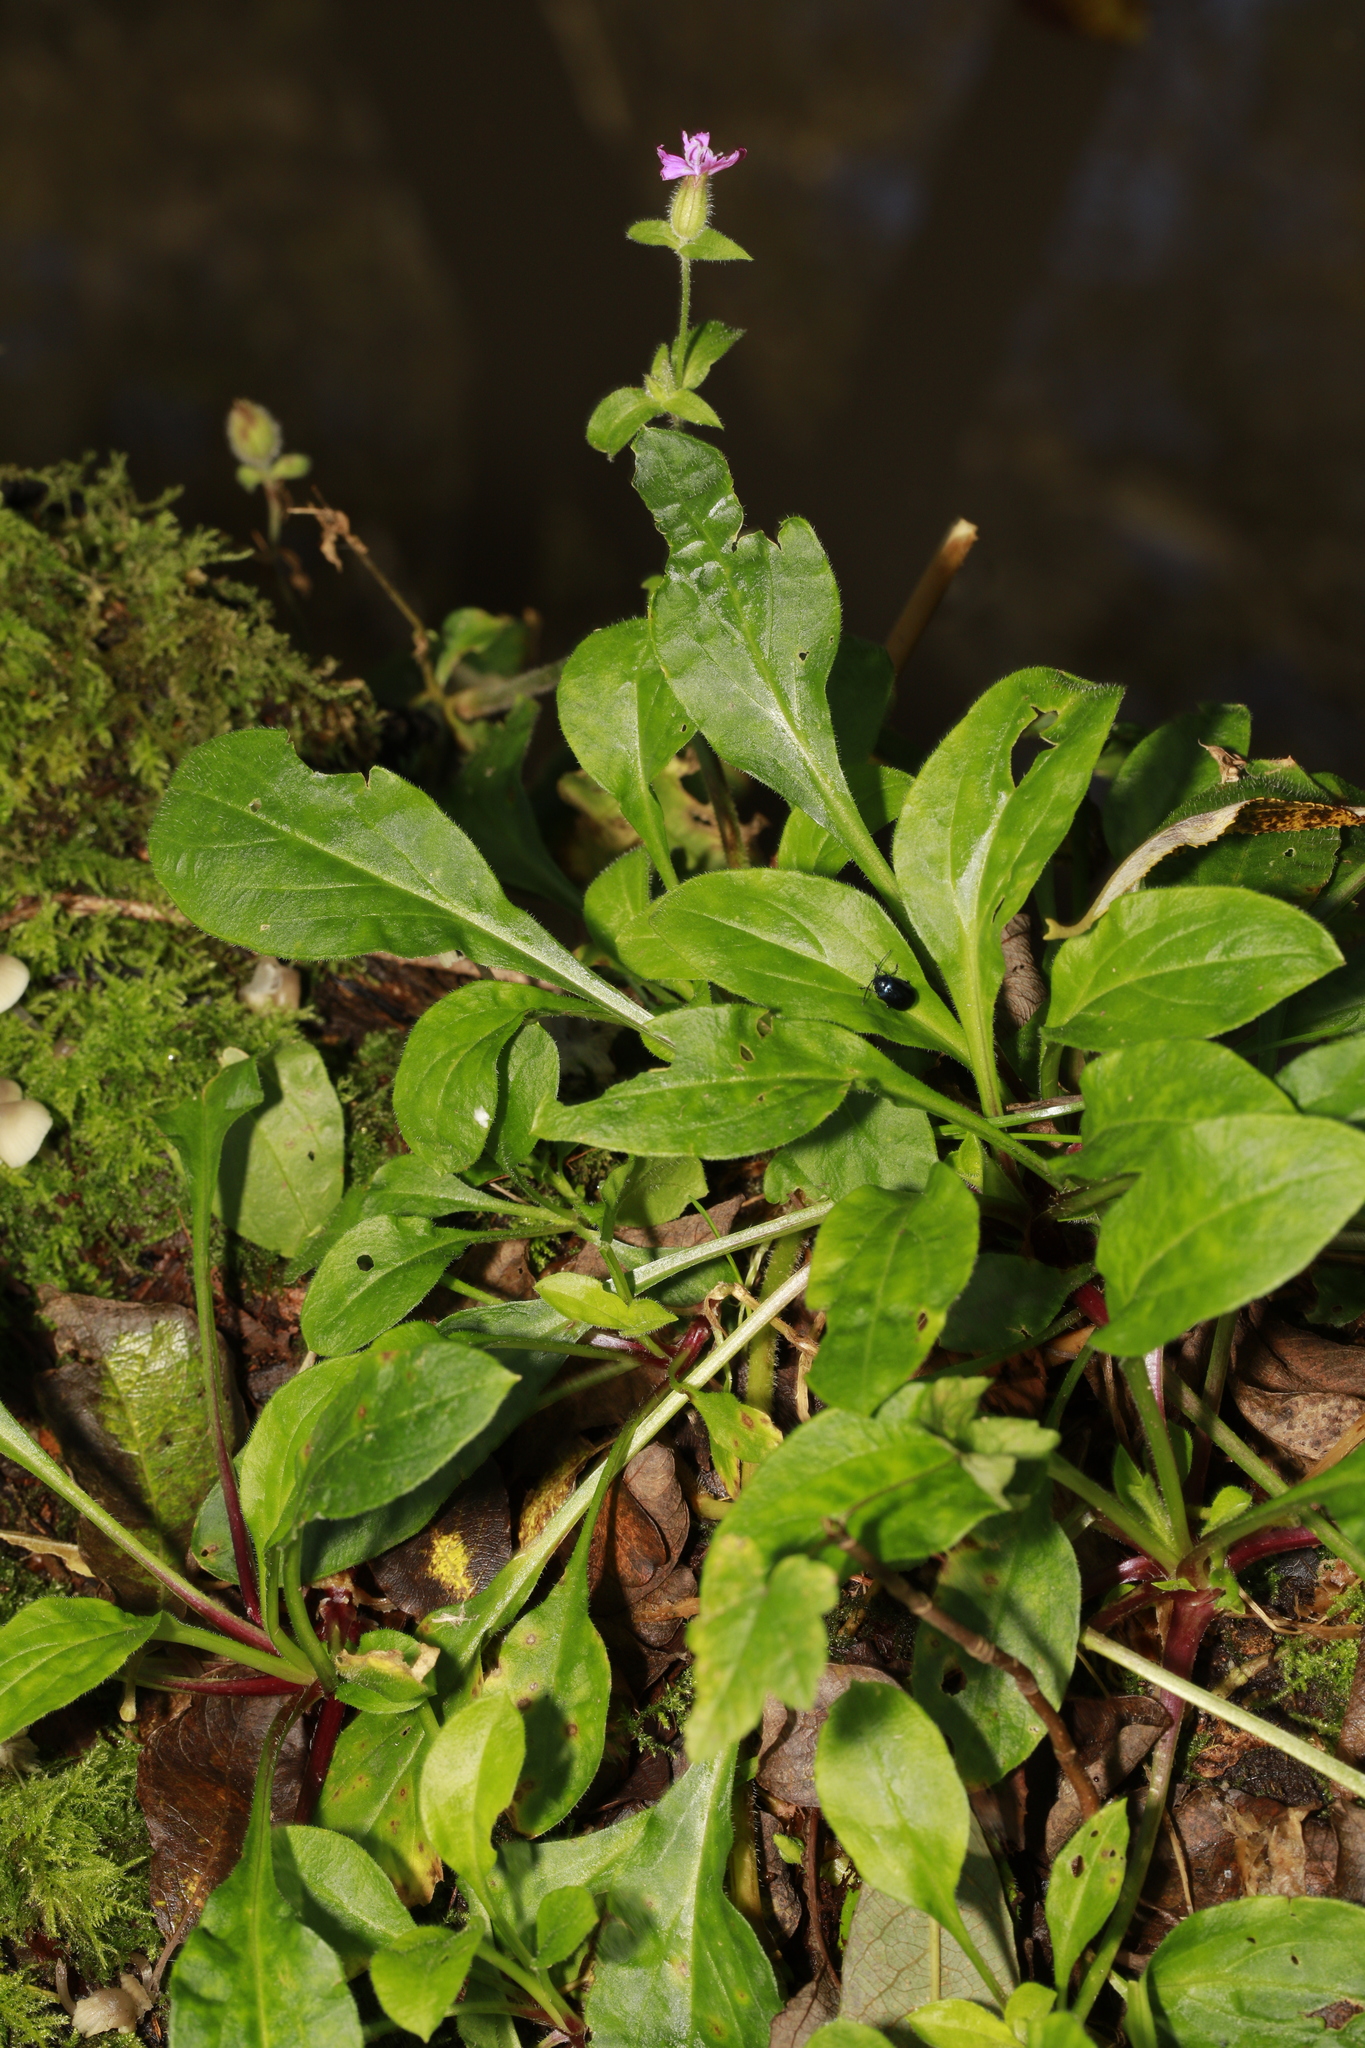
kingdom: Plantae
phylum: Tracheophyta
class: Magnoliopsida
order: Caryophyllales
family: Caryophyllaceae
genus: Silene
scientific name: Silene dioica
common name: Red campion
